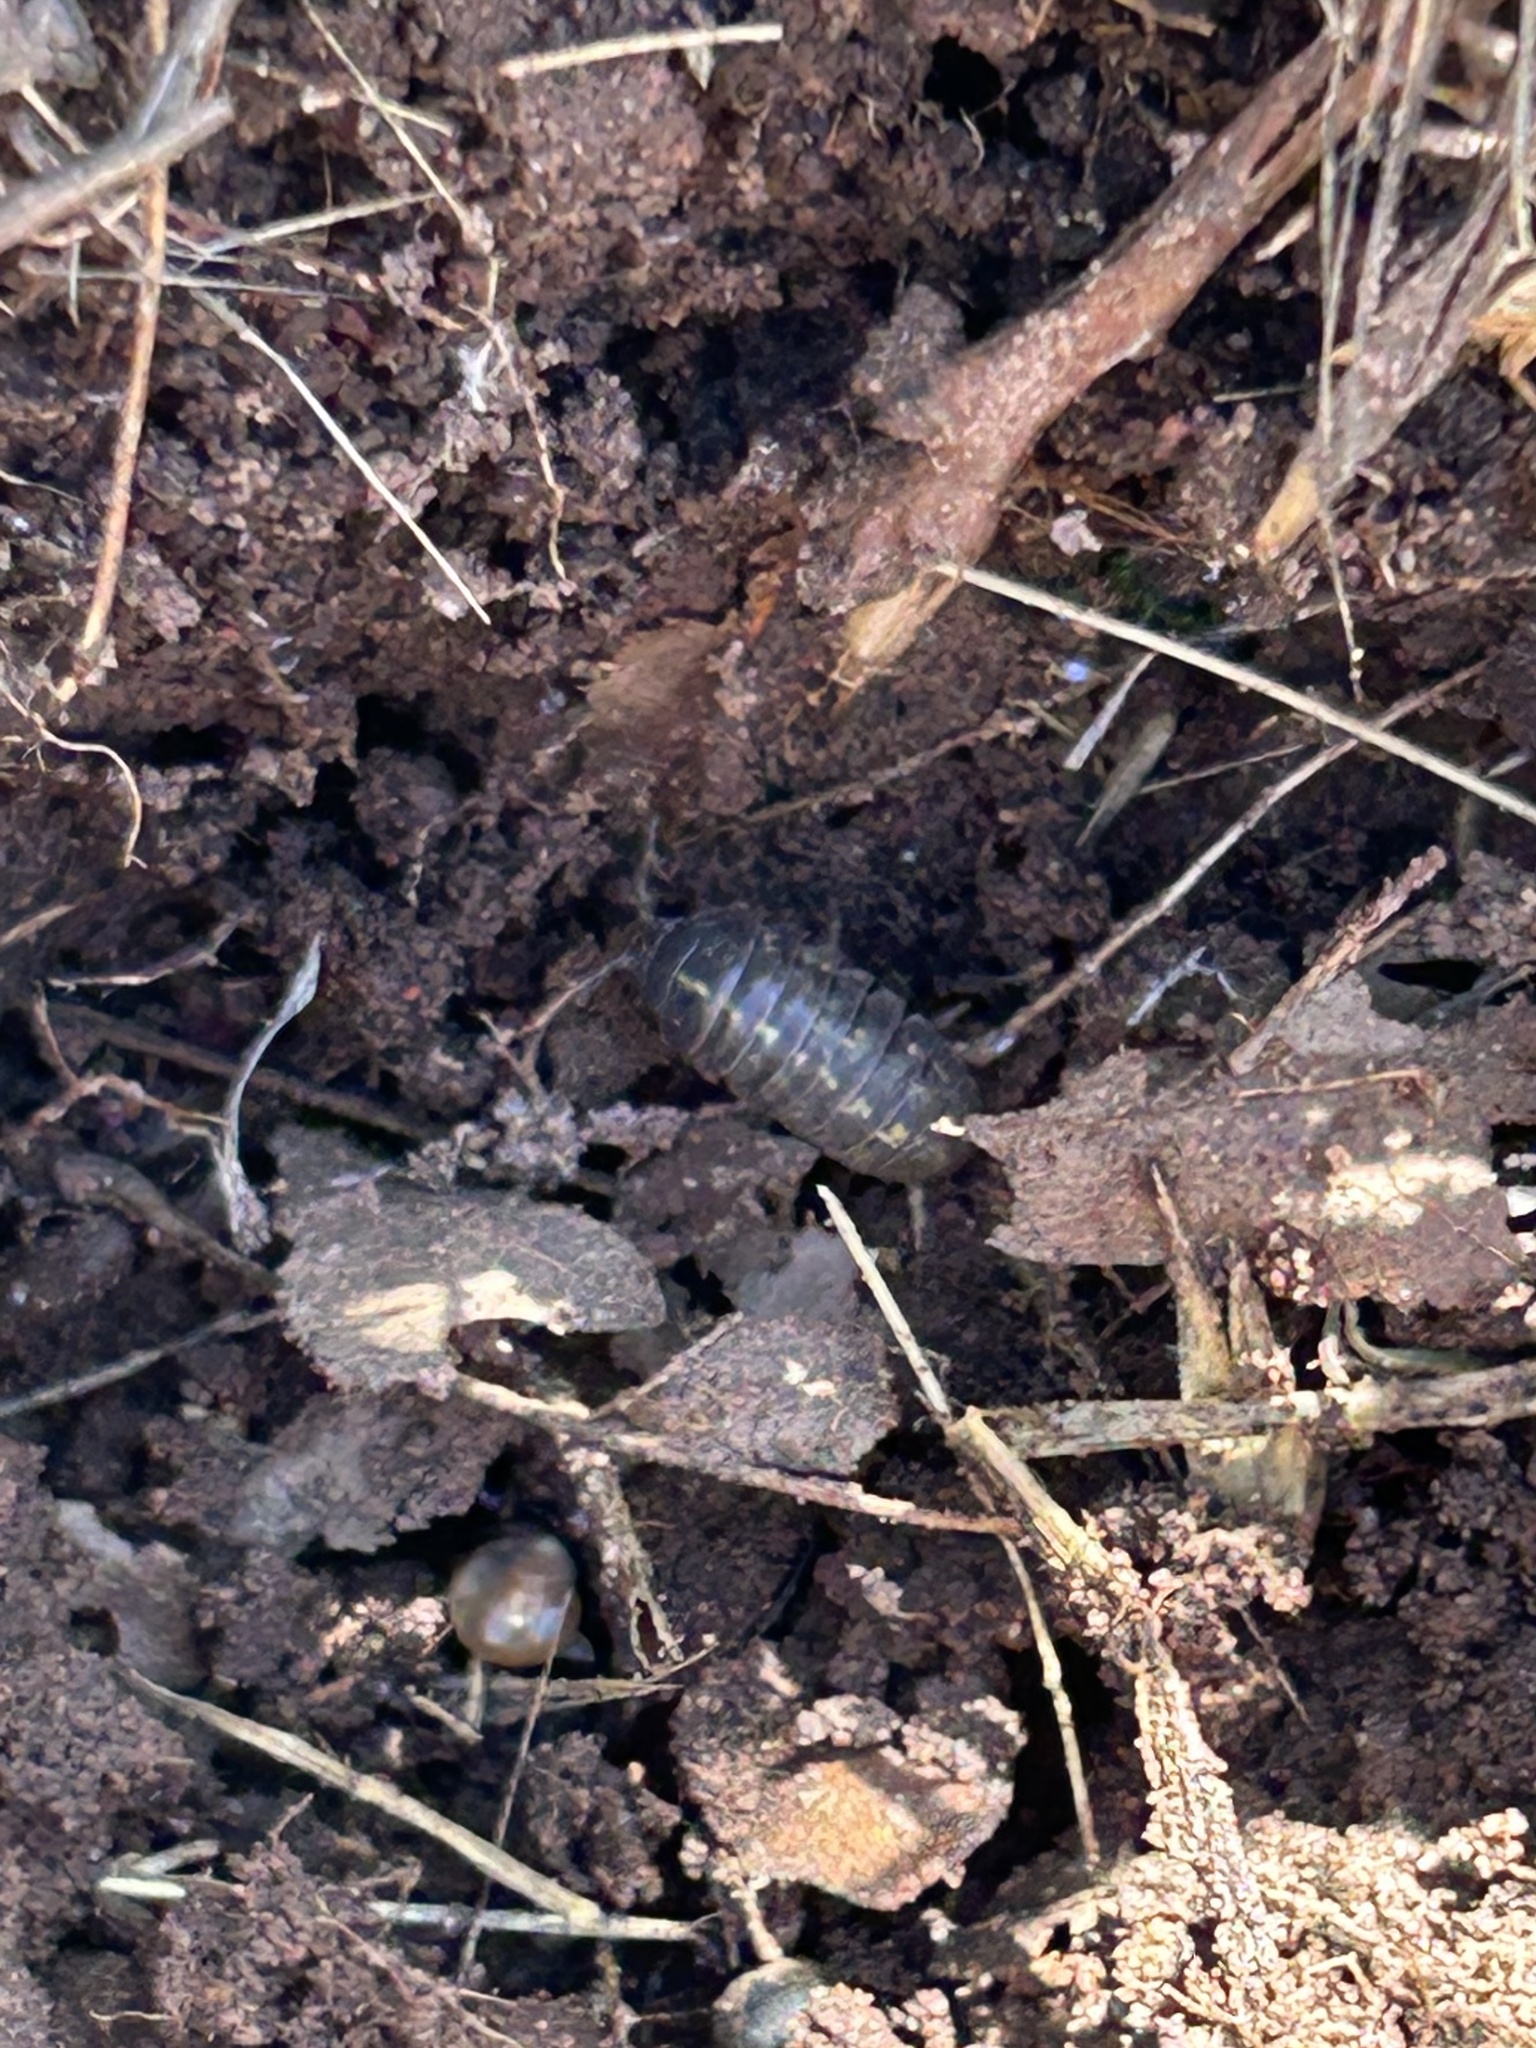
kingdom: Animalia
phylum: Arthropoda
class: Malacostraca
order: Isopoda
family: Armadillidiidae
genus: Armadillidium
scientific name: Armadillidium vulgare
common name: Common pill woodlouse
